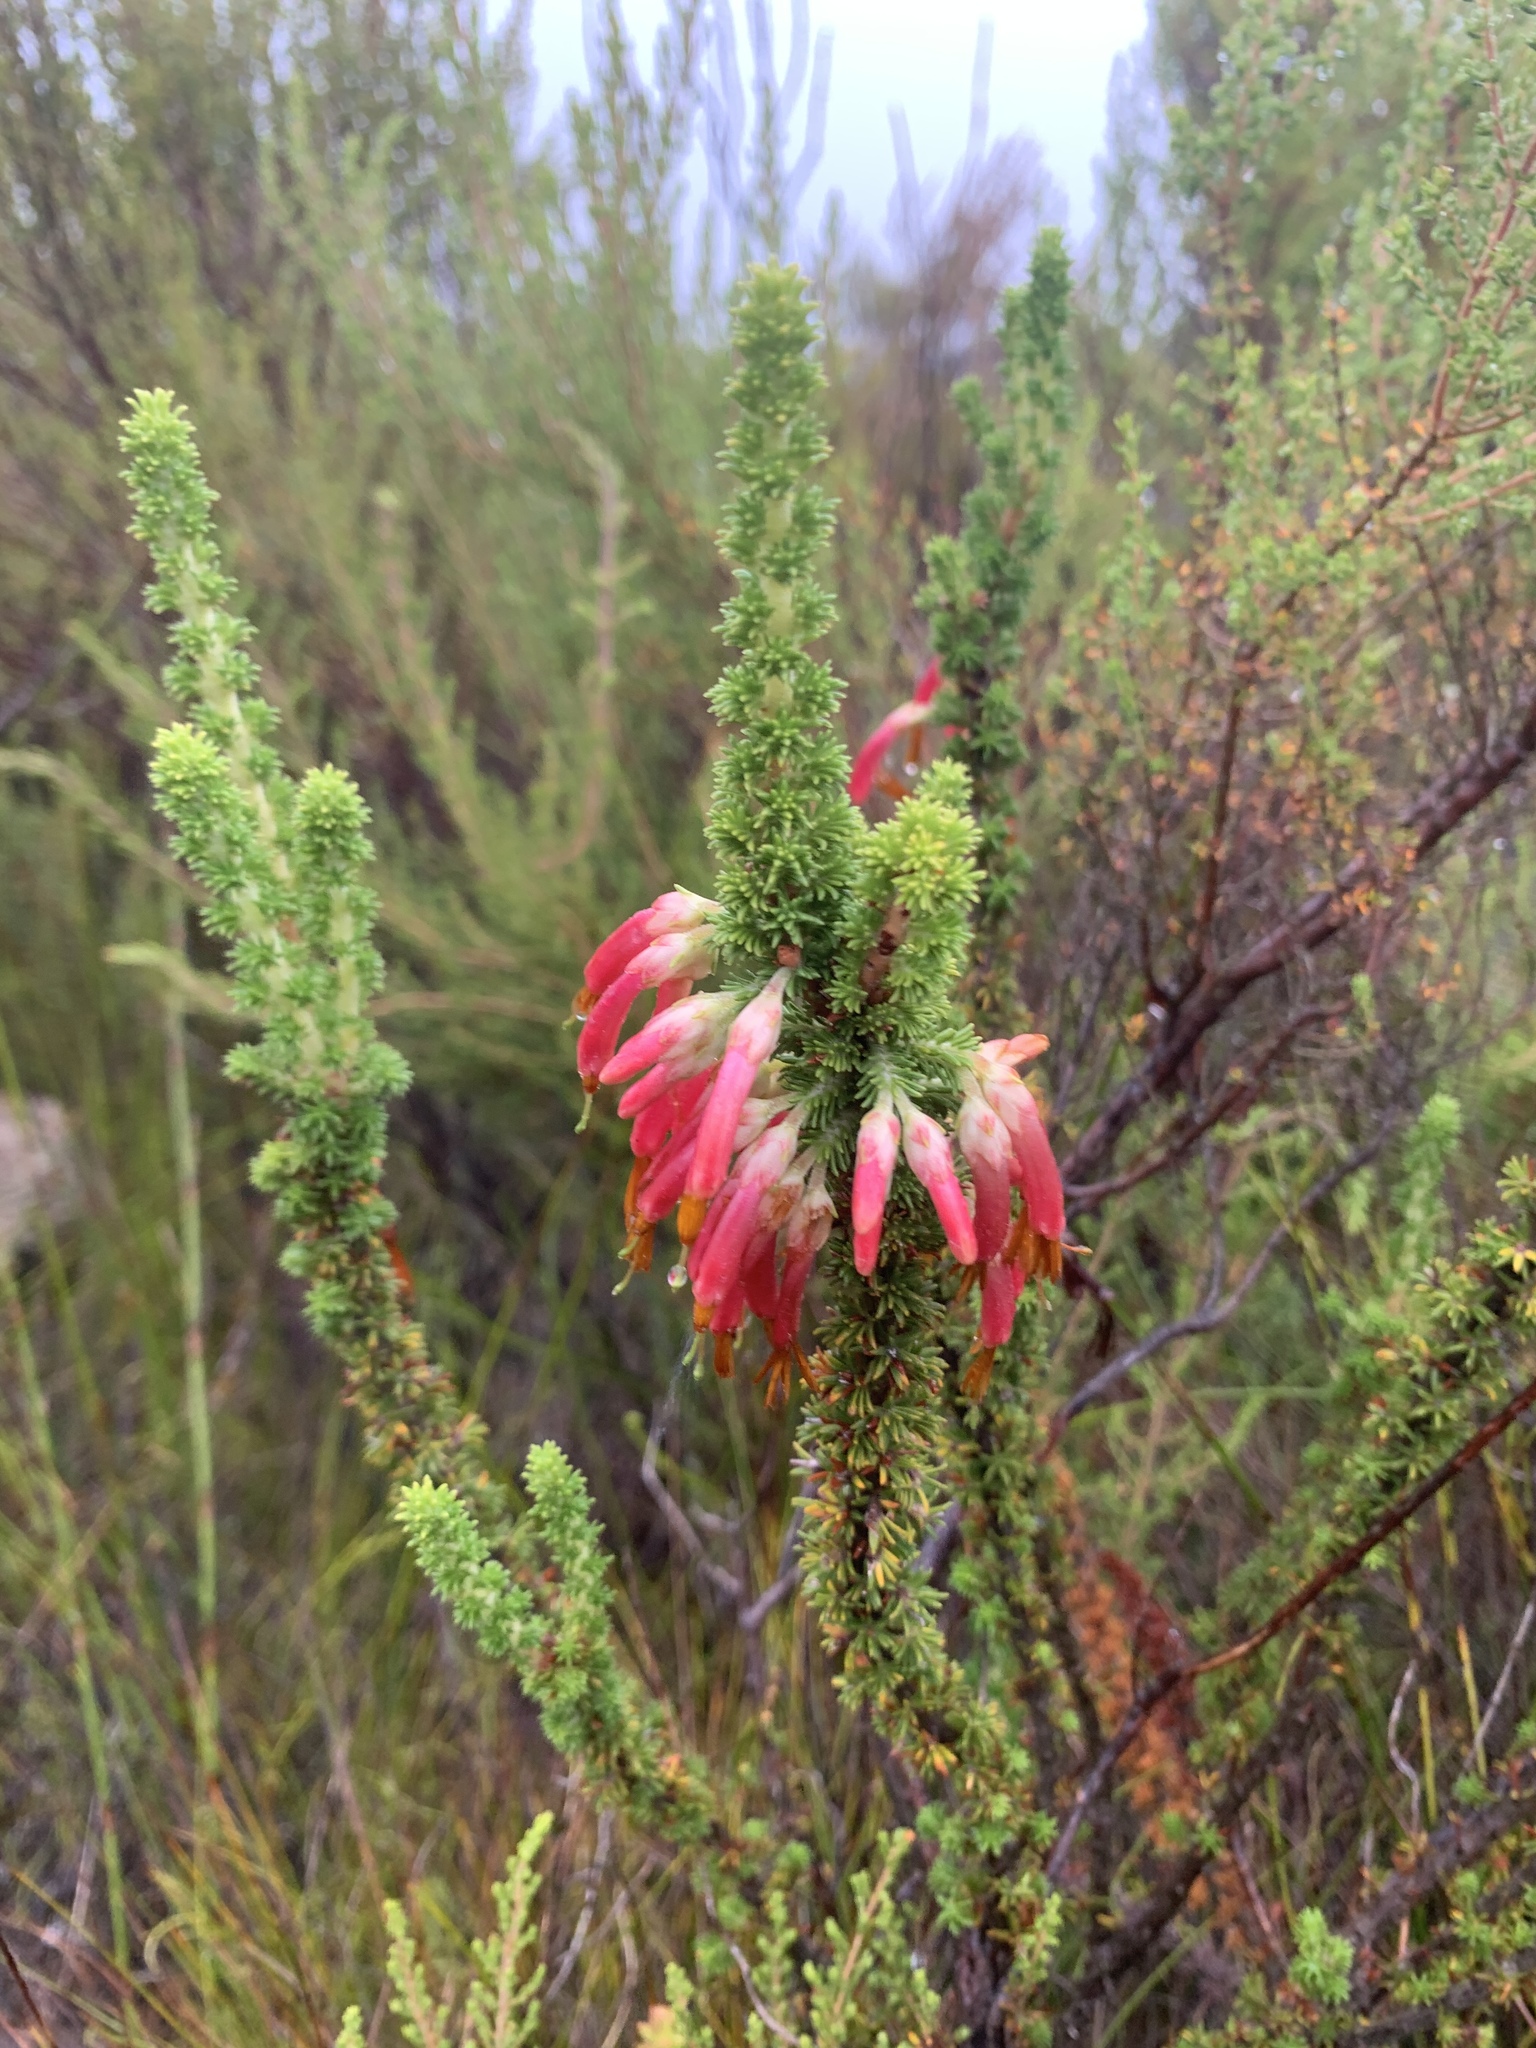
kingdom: Plantae
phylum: Tracheophyta
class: Magnoliopsida
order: Ericales
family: Ericaceae
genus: Erica
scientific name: Erica coccinea
